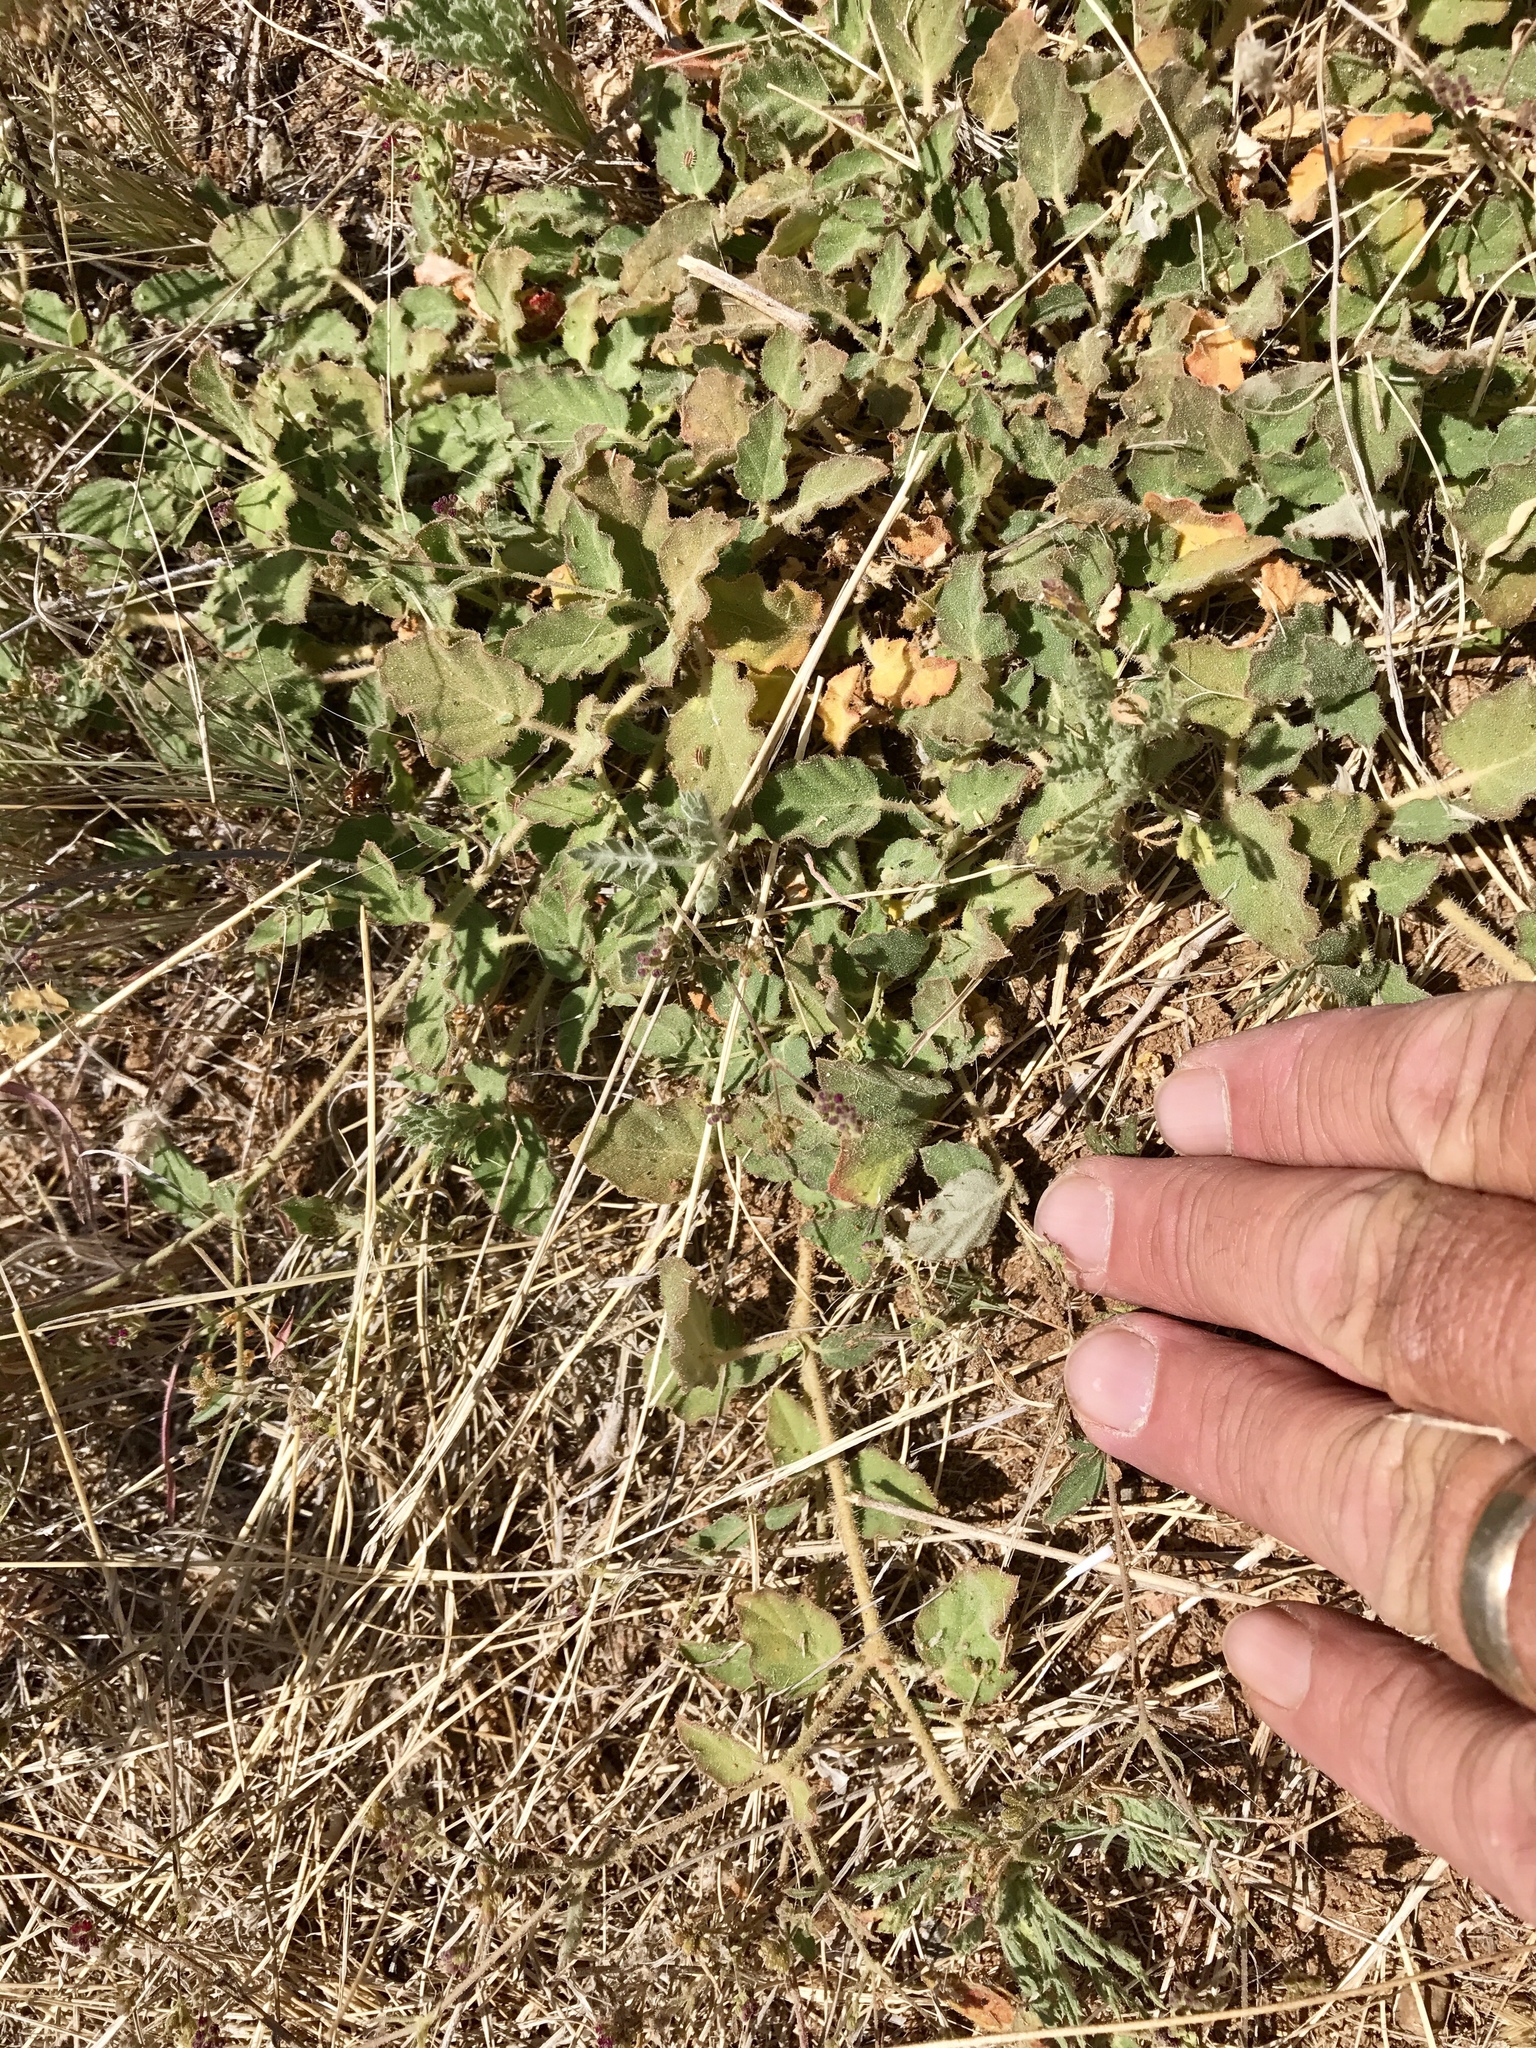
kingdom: Plantae
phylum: Tracheophyta
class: Magnoliopsida
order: Caryophyllales
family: Nyctaginaceae
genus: Boerhavia
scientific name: Boerhavia coccinea
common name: Scarlet spiderling
